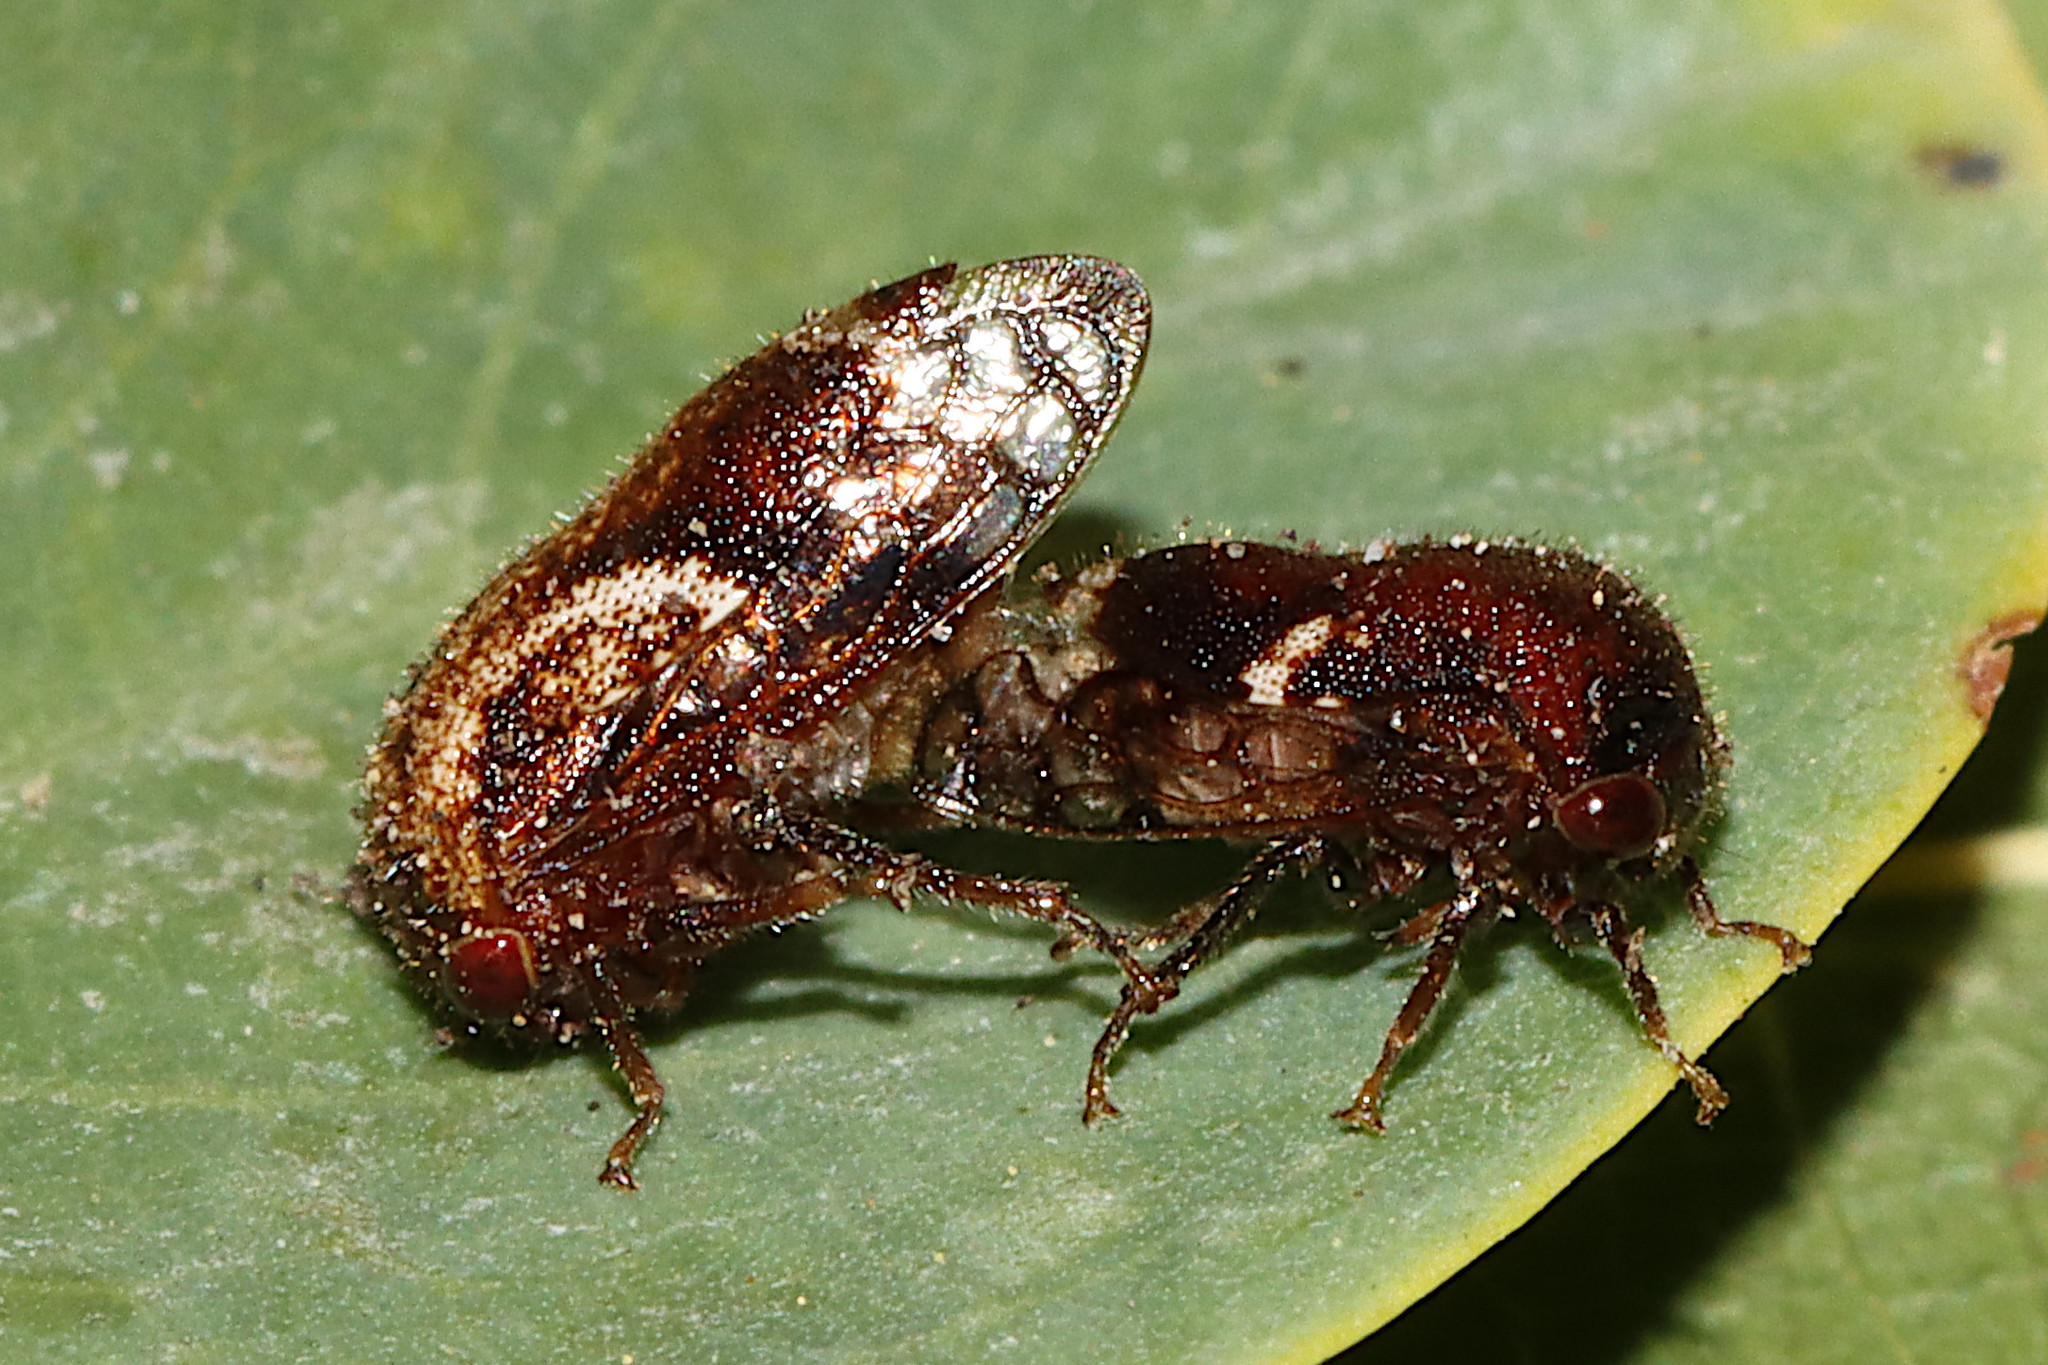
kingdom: Animalia
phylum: Arthropoda
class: Insecta
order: Hemiptera
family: Membracidae
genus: Vanduzea
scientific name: Vanduzea arquata
